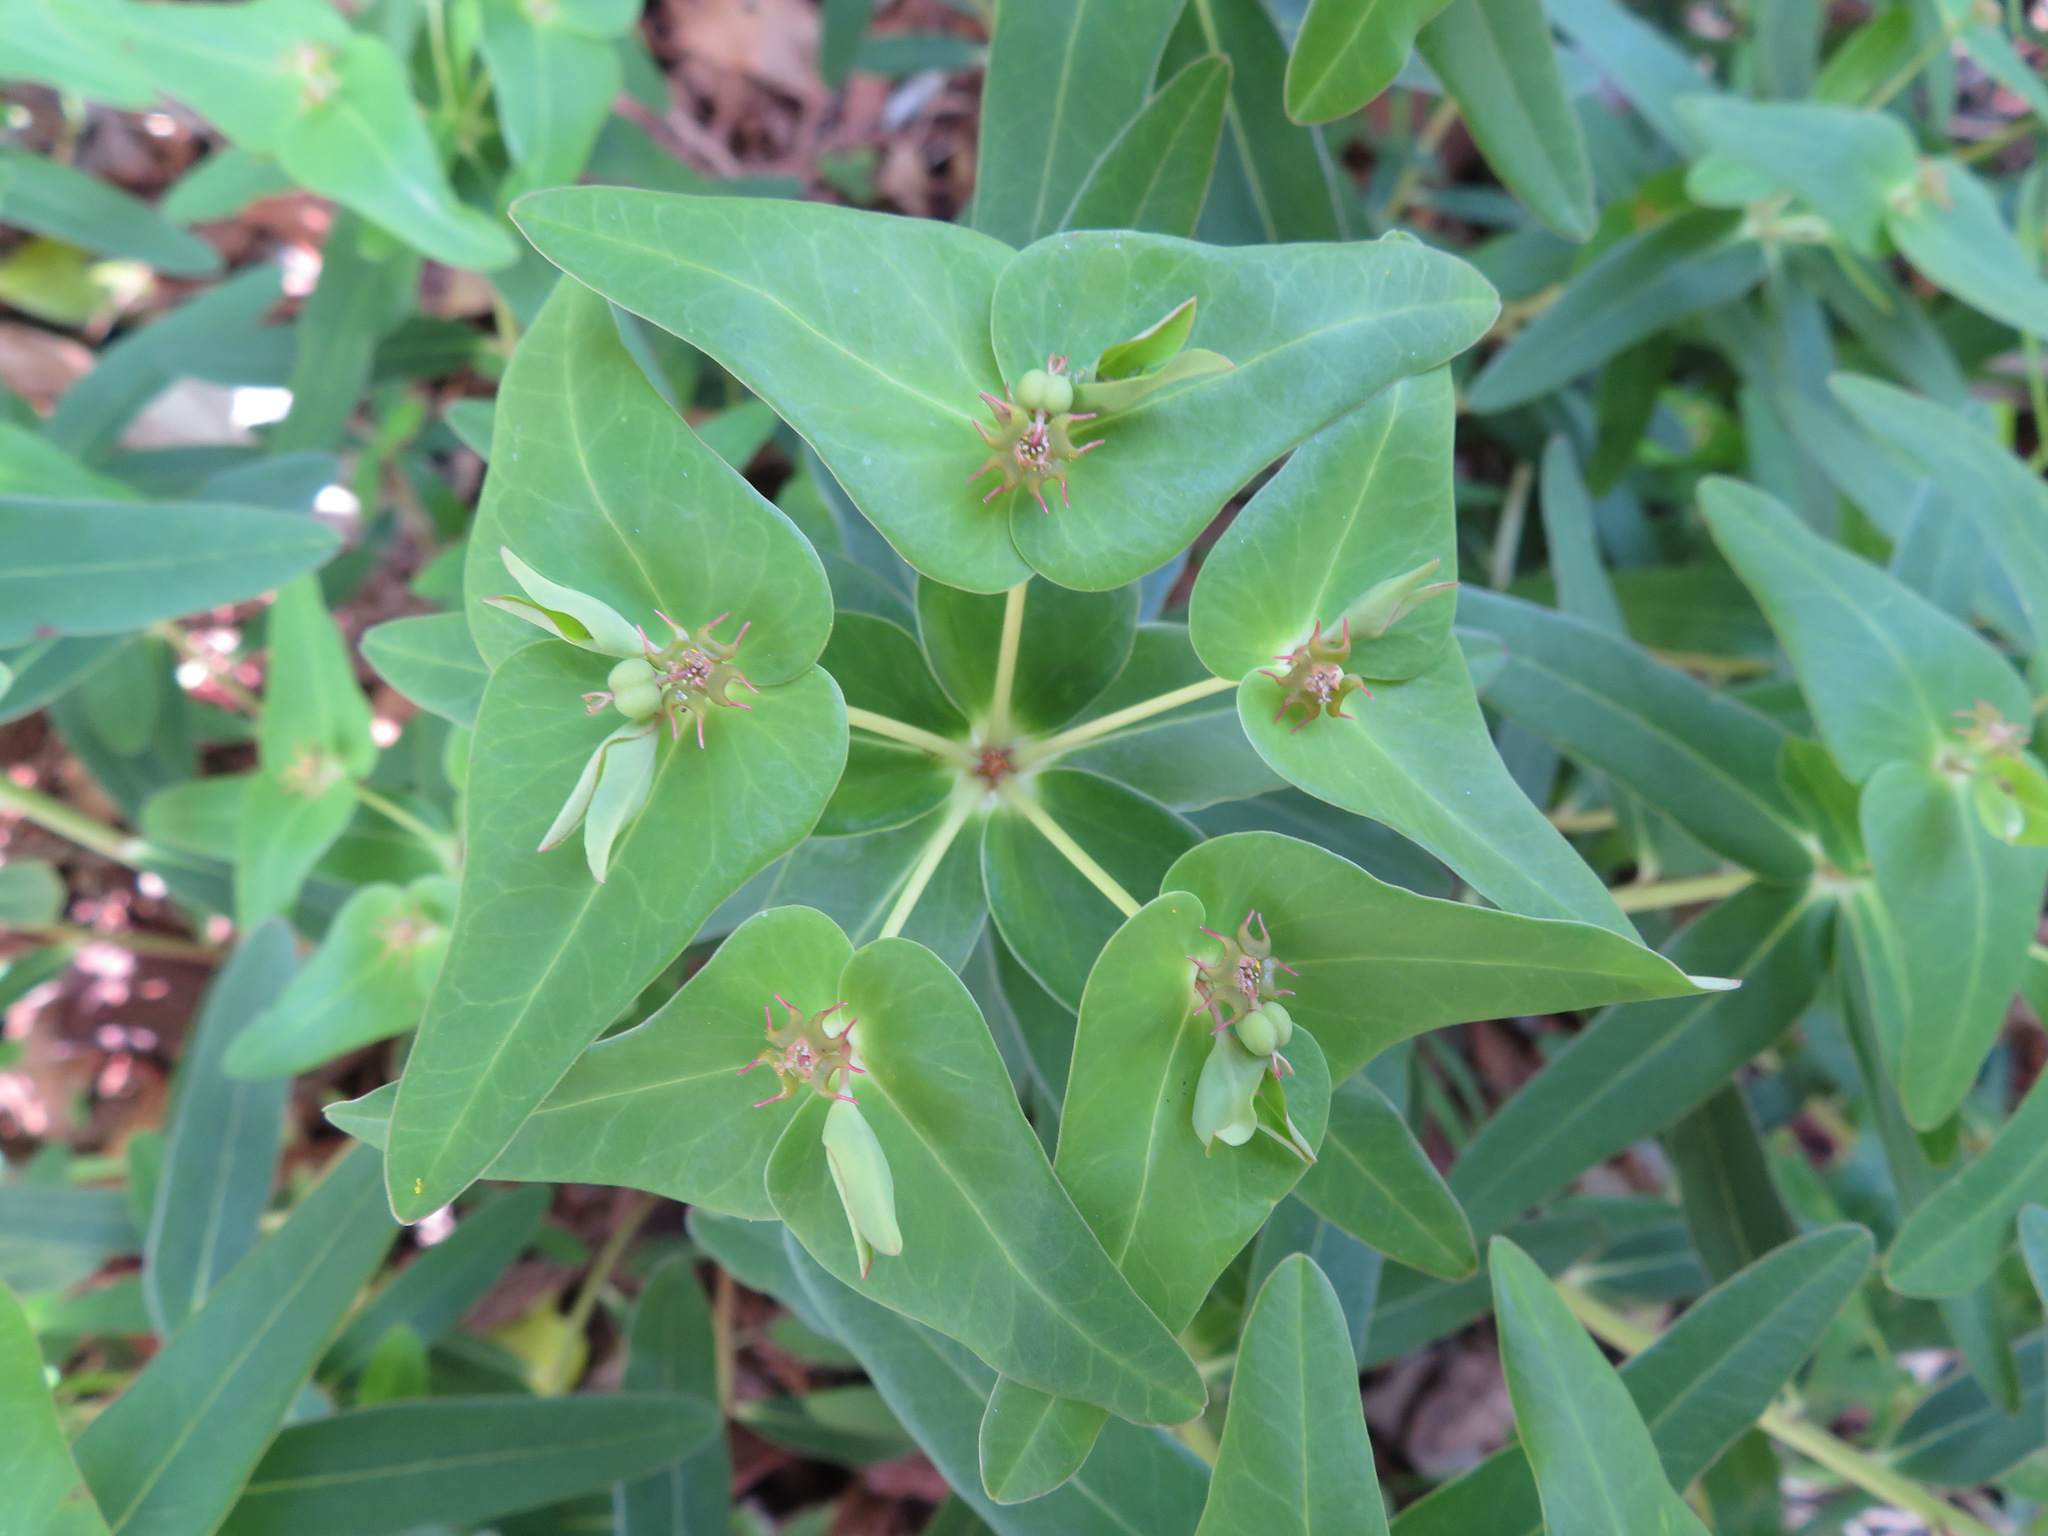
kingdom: Plantae
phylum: Tracheophyta
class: Magnoliopsida
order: Malpighiales
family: Euphorbiaceae
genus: Euphorbia
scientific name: Euphorbia sieboldiana
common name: Siebold's spurge
